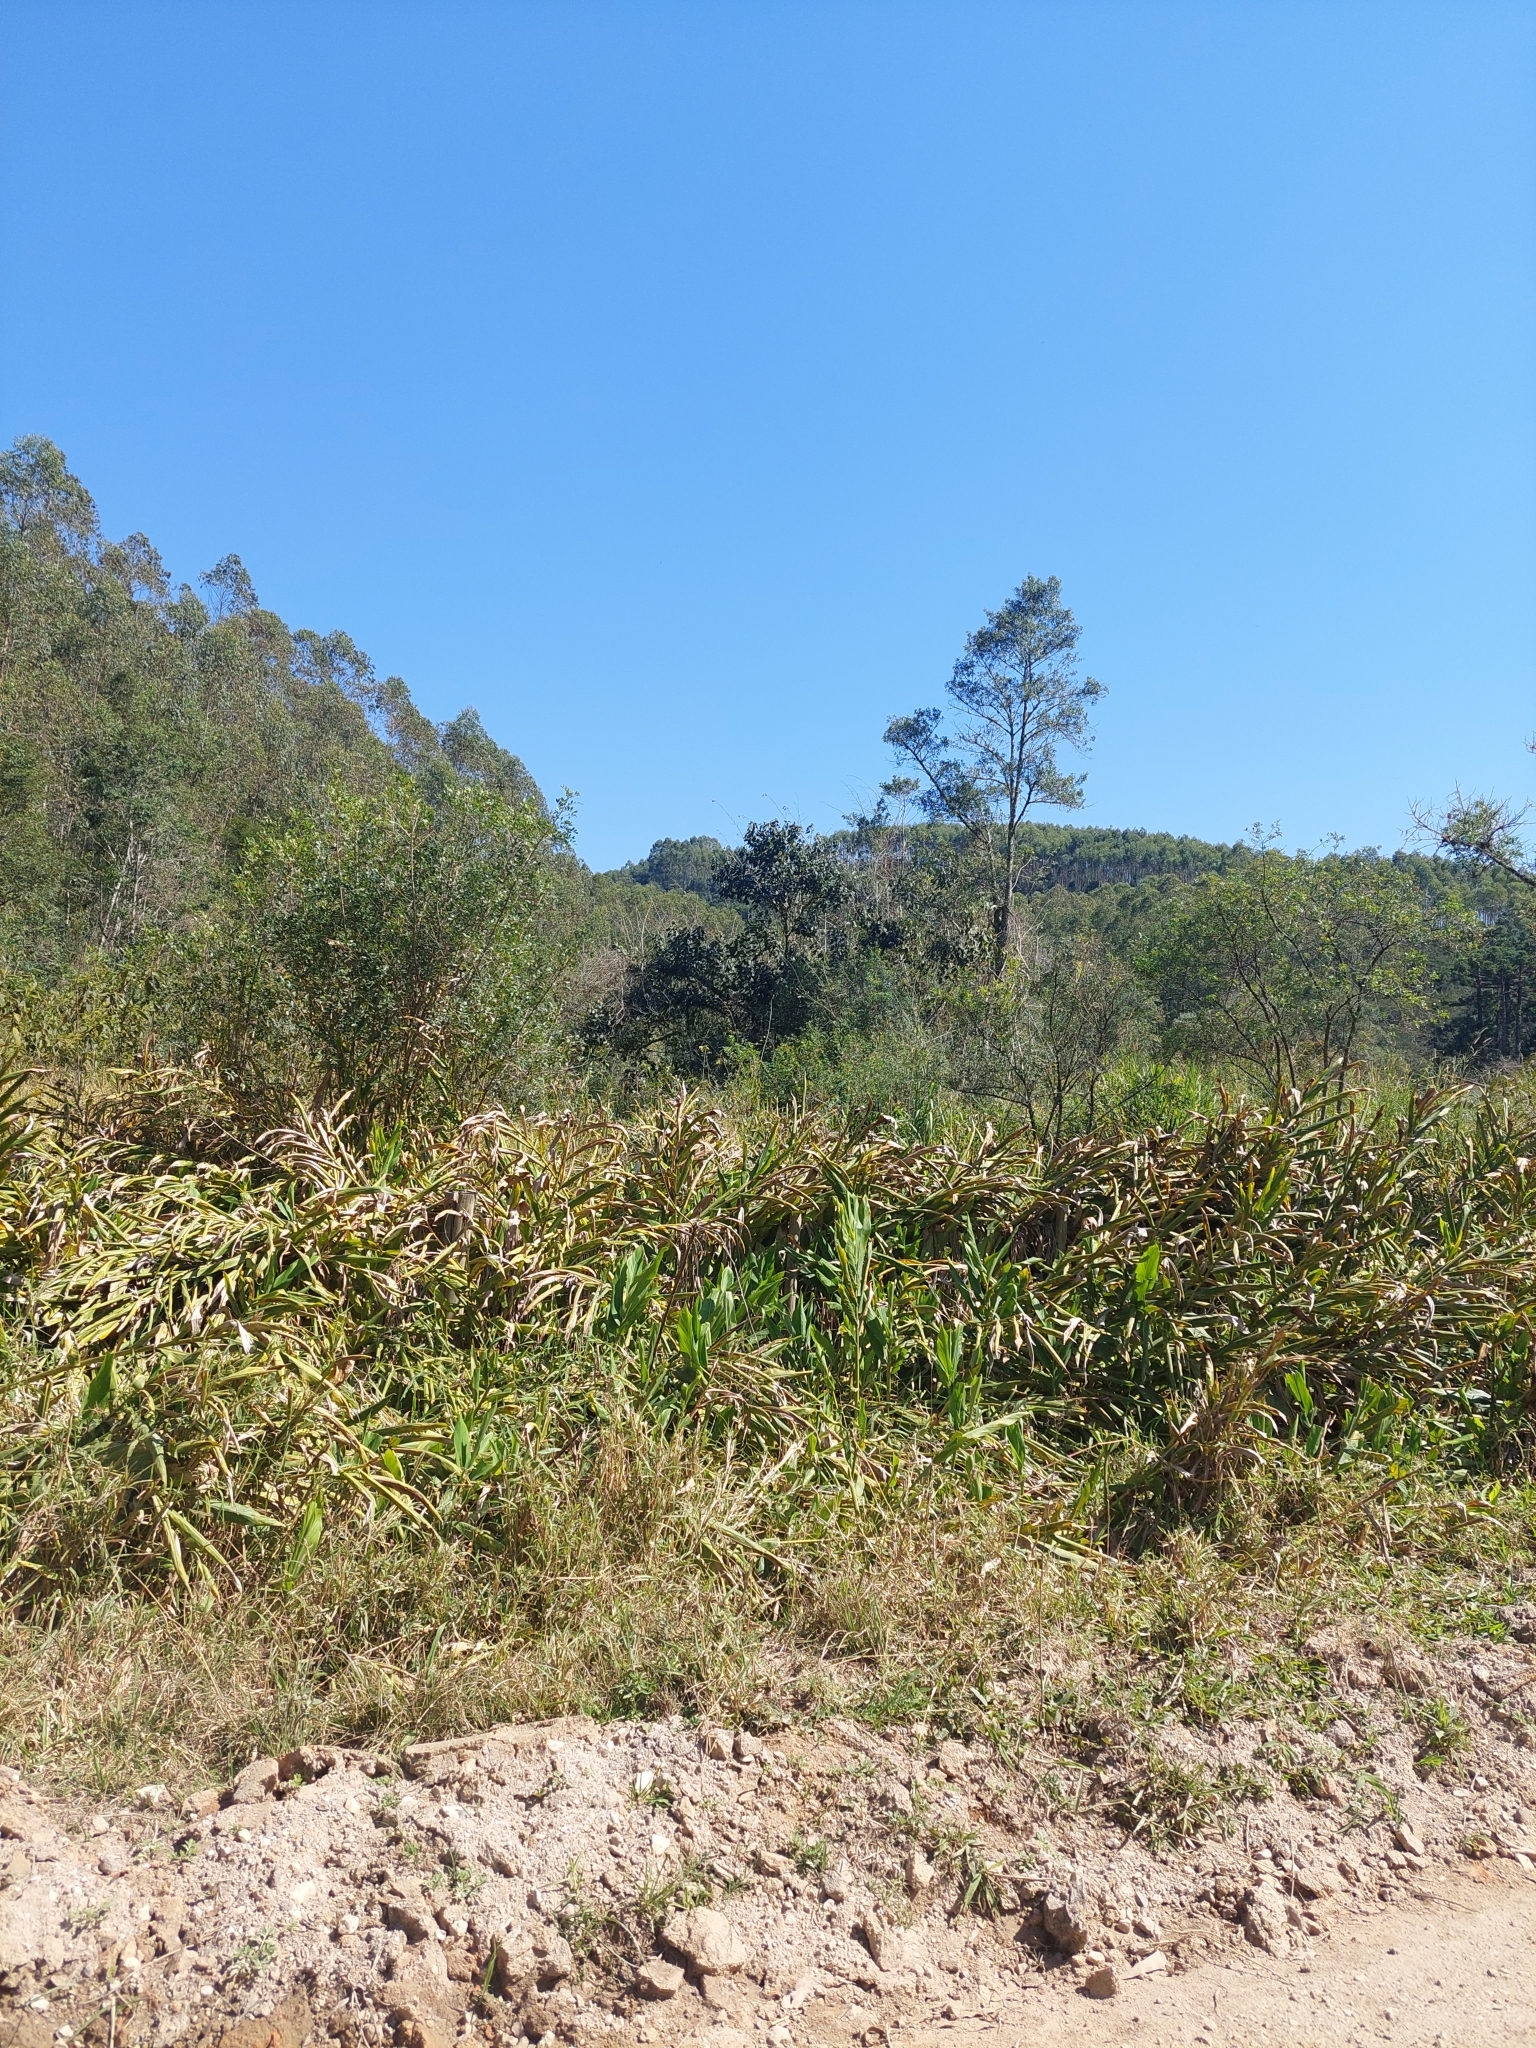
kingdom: Plantae
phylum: Tracheophyta
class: Liliopsida
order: Zingiberales
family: Zingiberaceae
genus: Hedychium
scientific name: Hedychium coronarium
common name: White garland-lily
